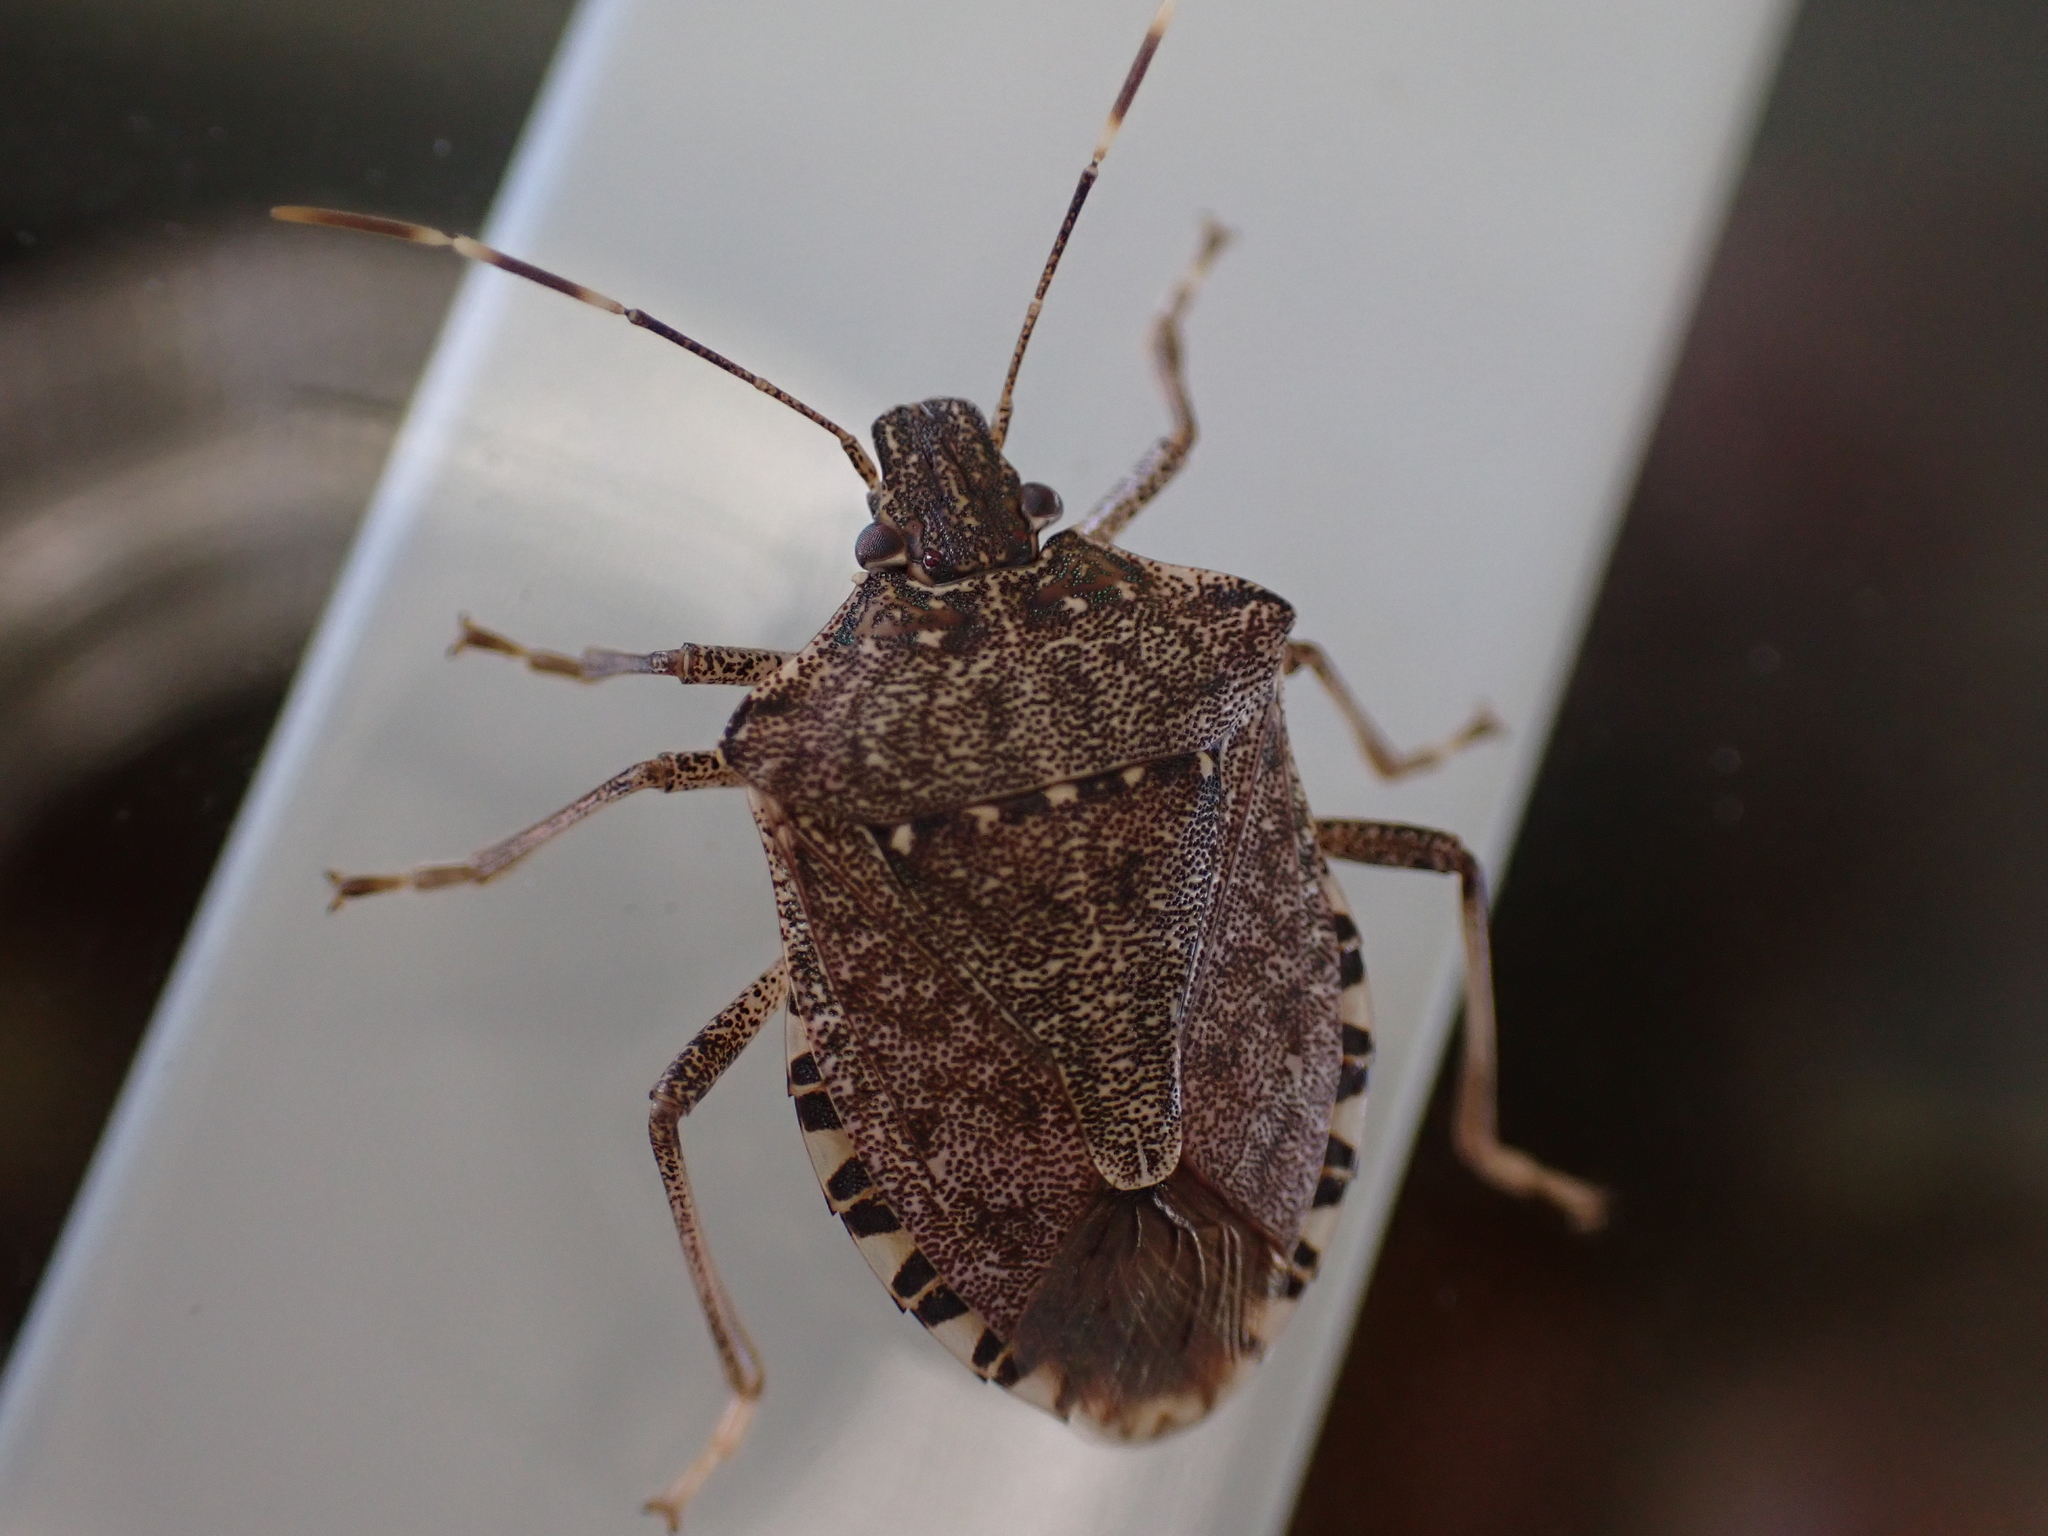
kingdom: Animalia
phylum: Arthropoda
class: Insecta
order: Hemiptera
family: Pentatomidae
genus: Halyomorpha
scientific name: Halyomorpha halys
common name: Brown marmorated stink bug
